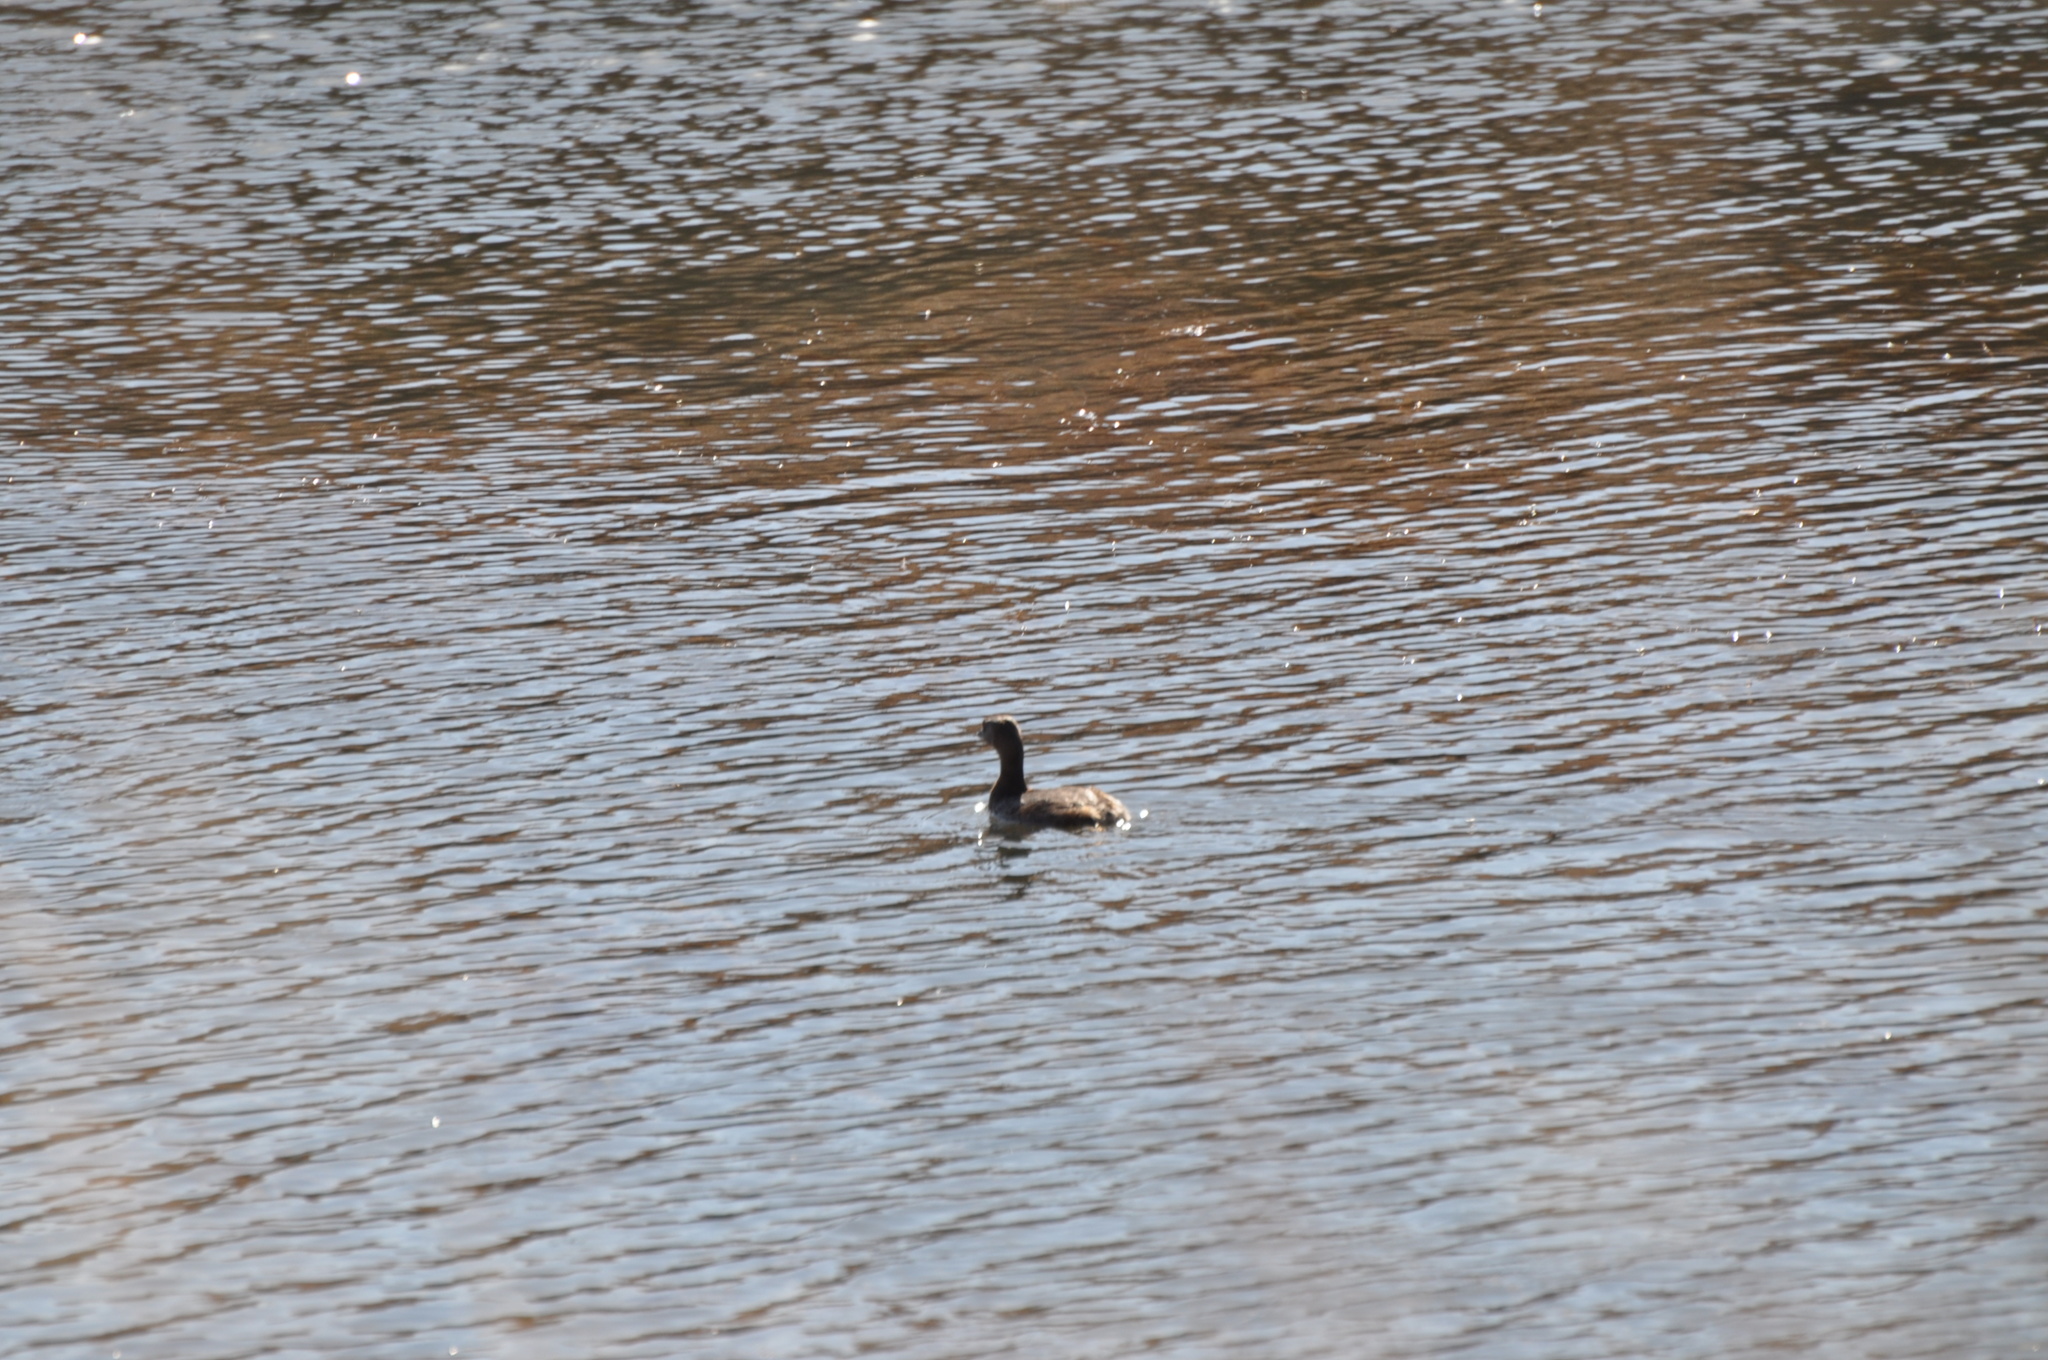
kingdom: Animalia
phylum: Chordata
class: Aves
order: Podicipediformes
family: Podicipedidae
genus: Podilymbus
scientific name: Podilymbus podiceps
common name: Pied-billed grebe
